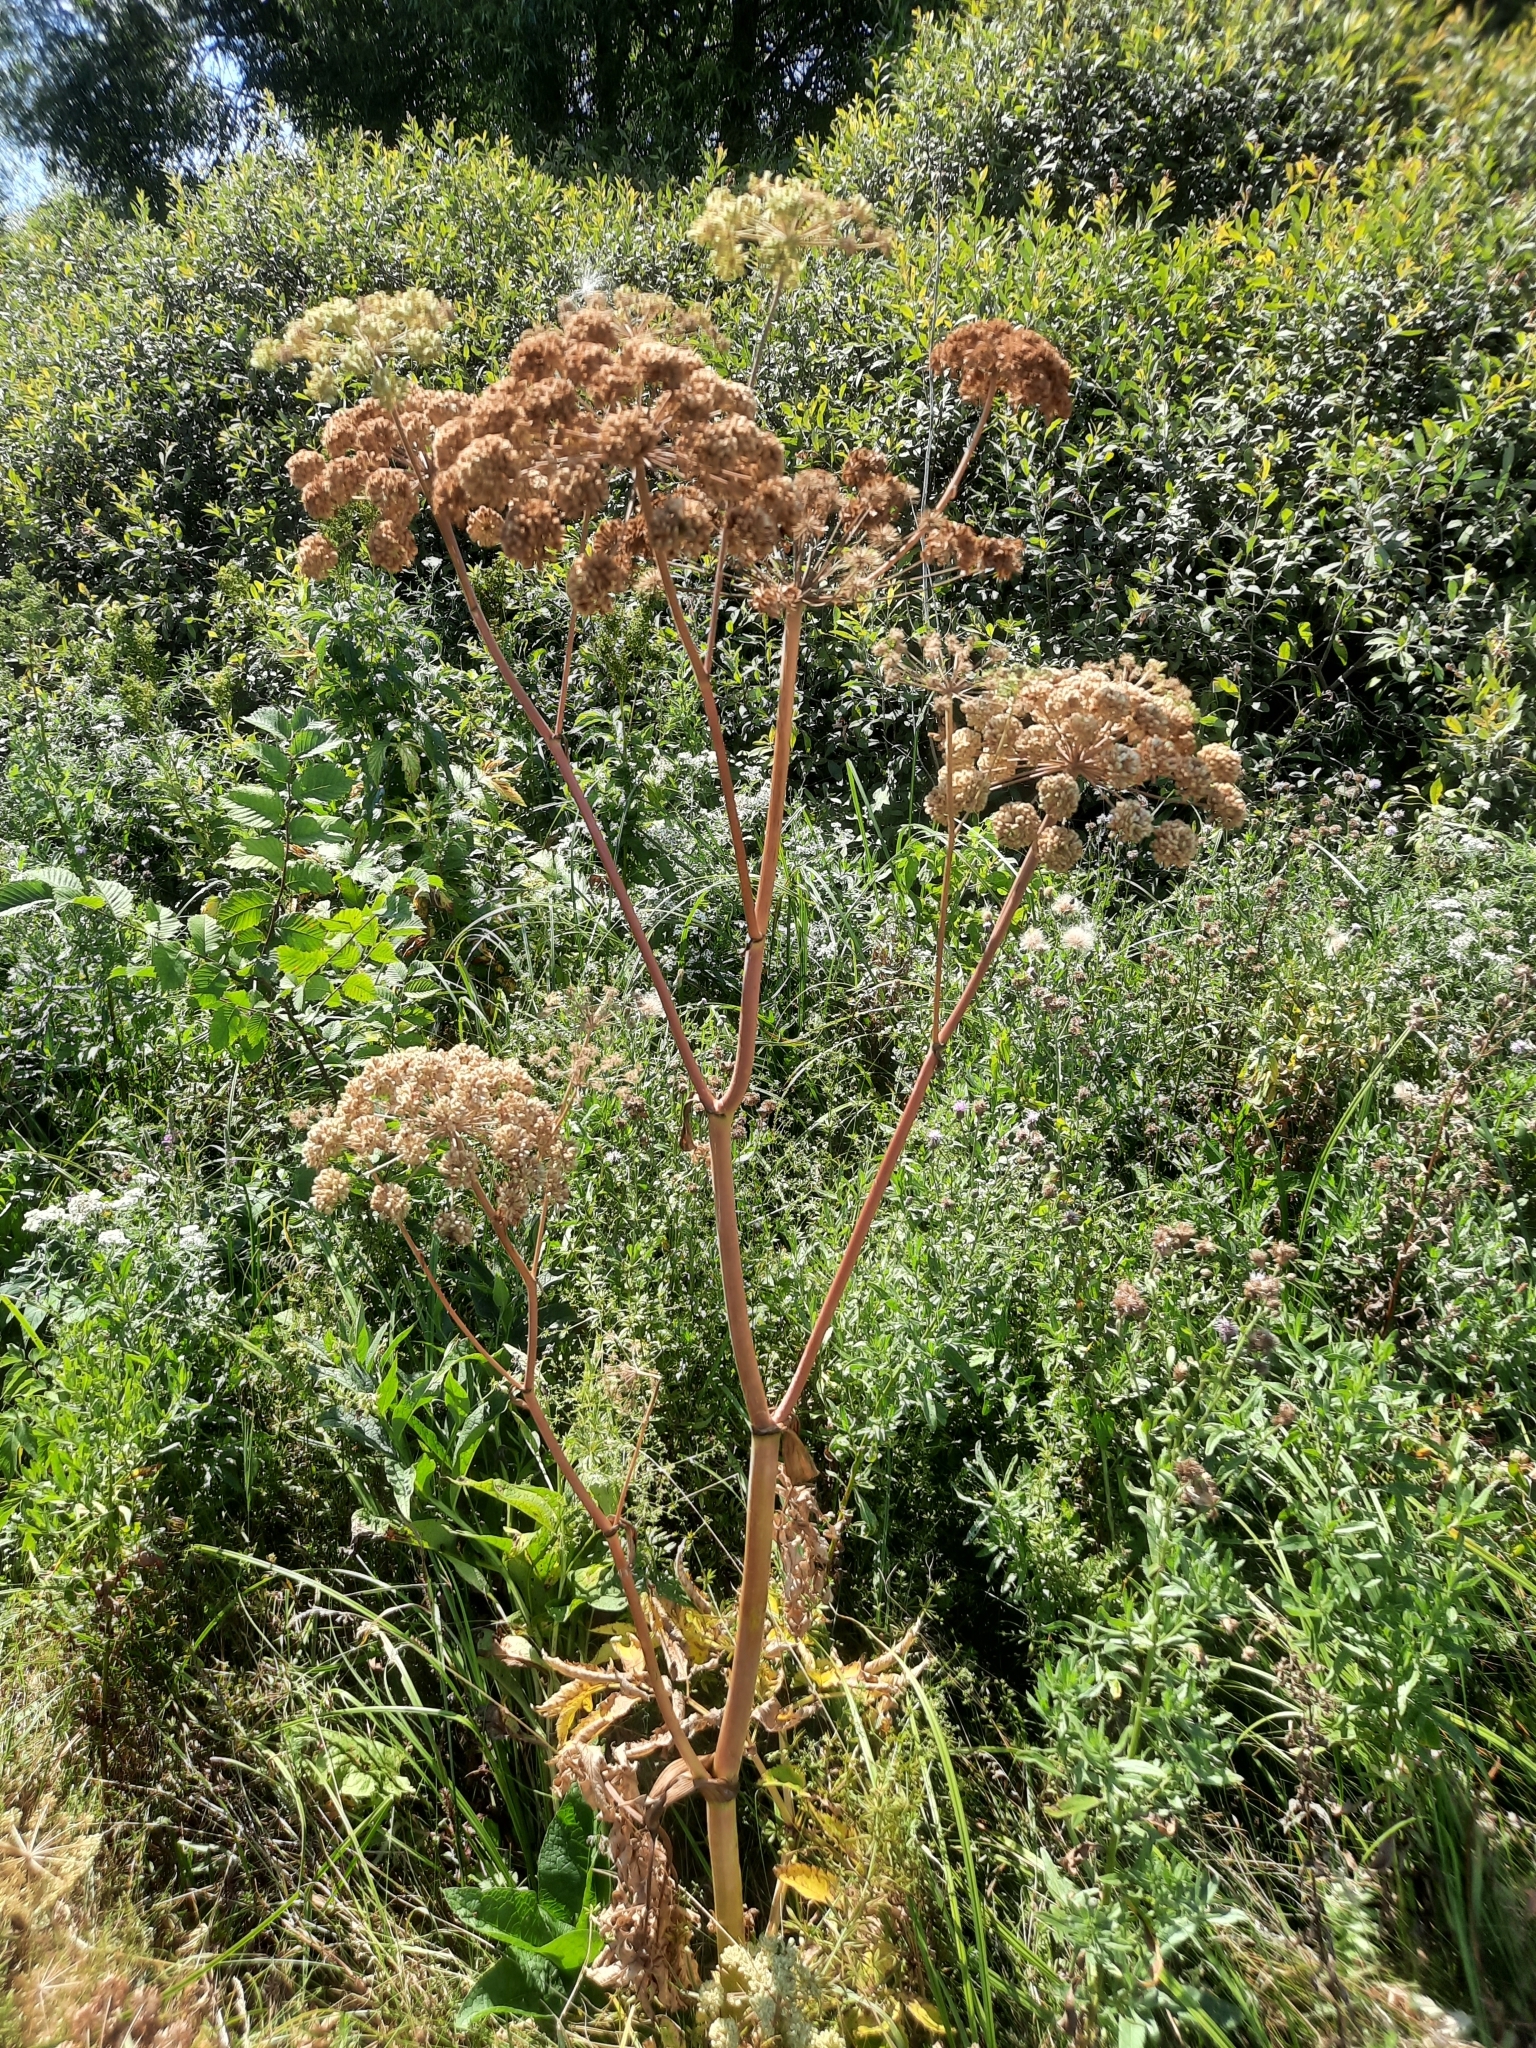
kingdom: Plantae
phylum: Tracheophyta
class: Magnoliopsida
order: Apiales
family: Apiaceae
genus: Angelica
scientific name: Angelica sylvestris
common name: Wild angelica
